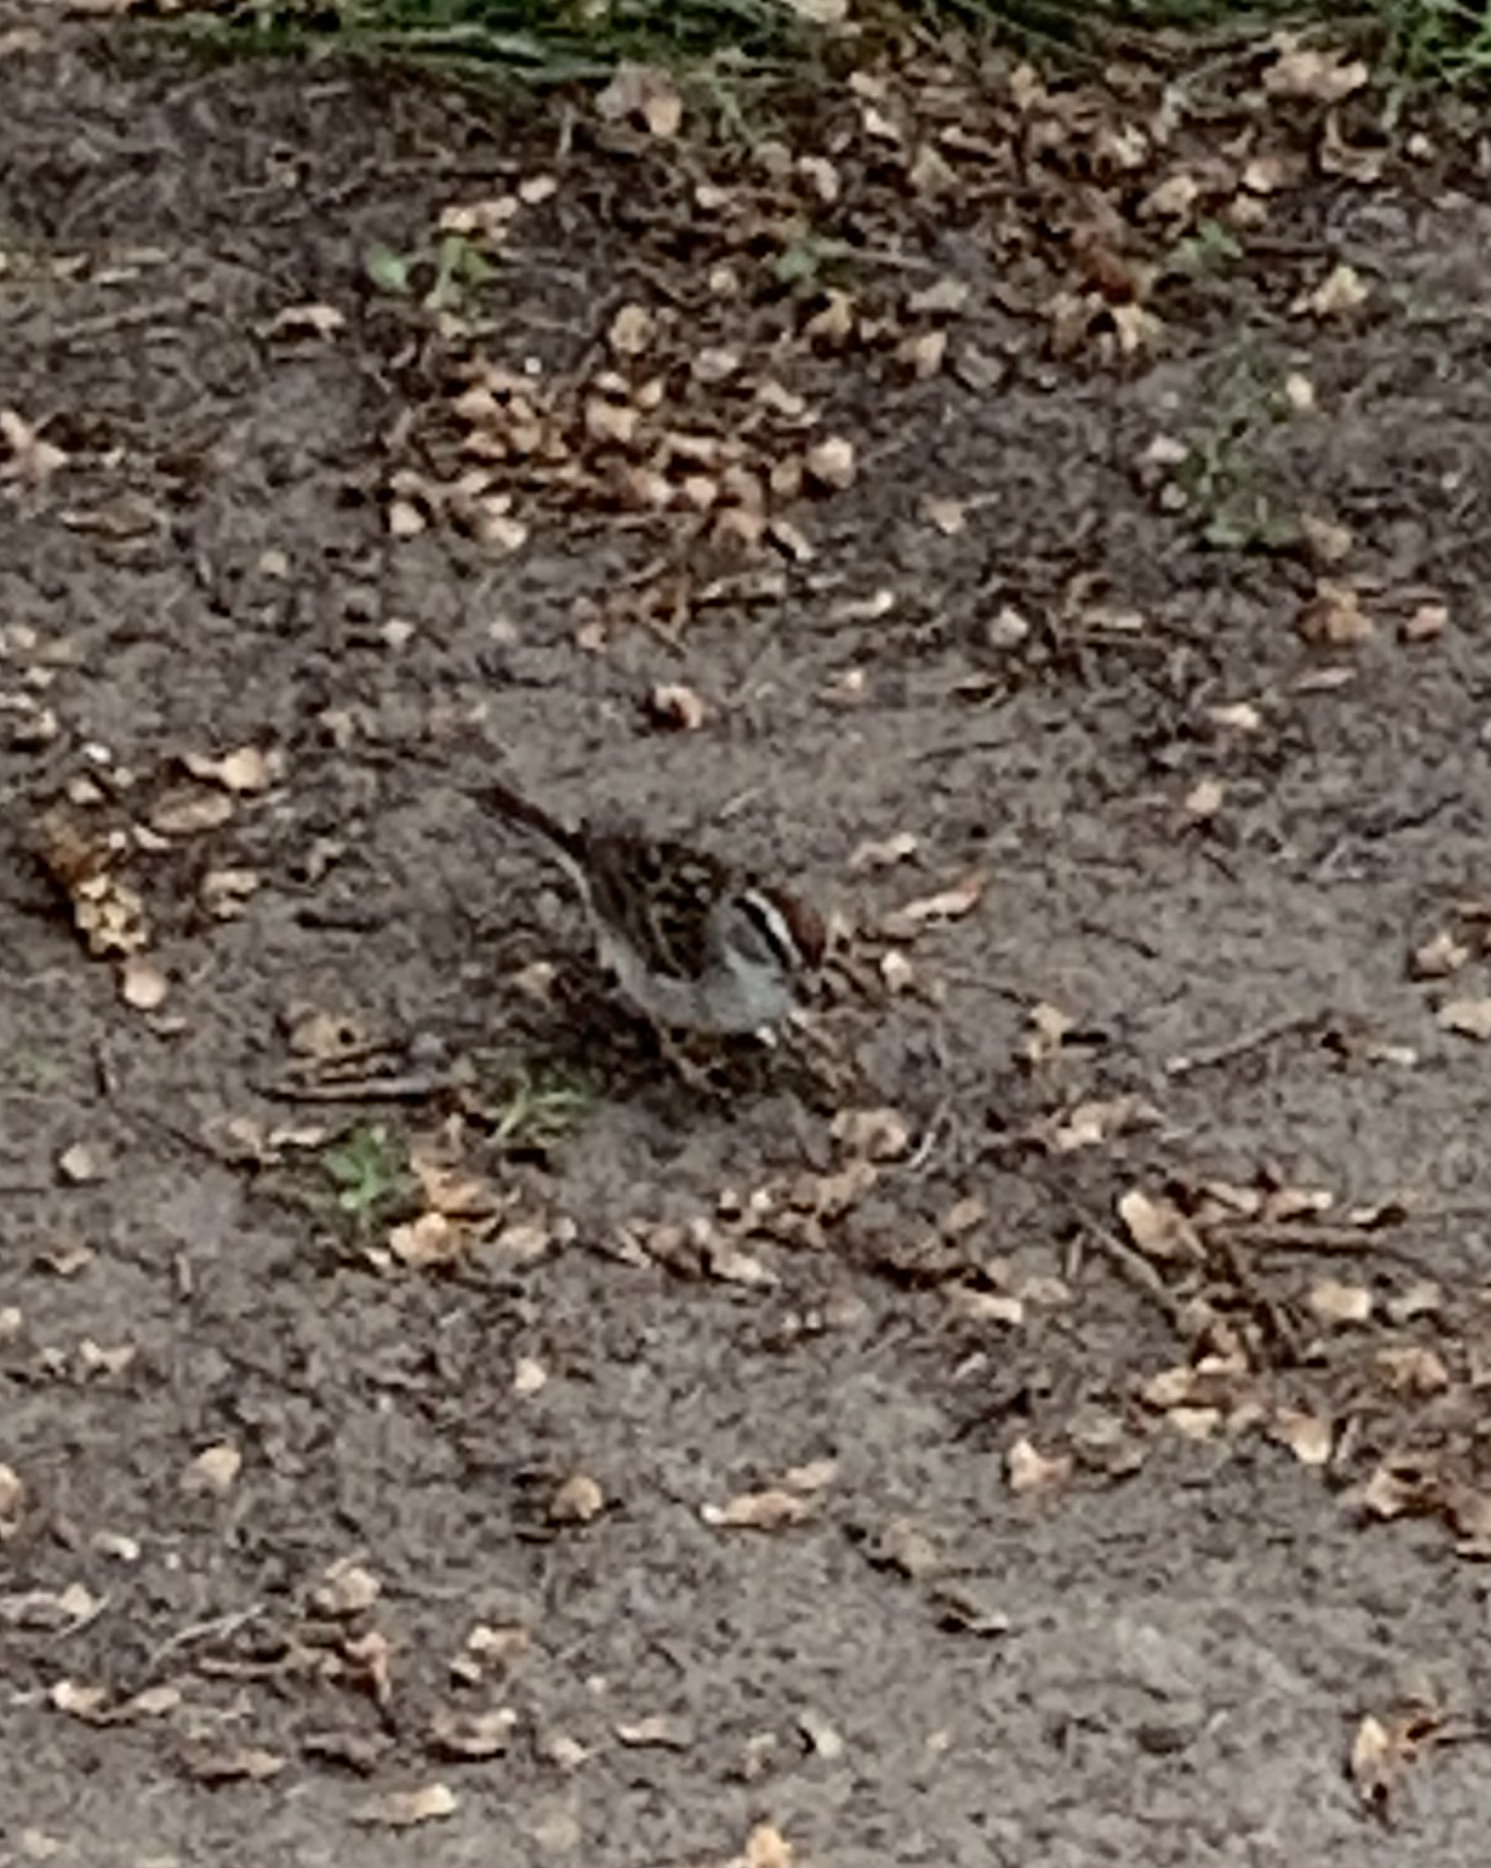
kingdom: Animalia
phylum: Chordata
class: Aves
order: Passeriformes
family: Passerellidae
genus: Spizella
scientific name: Spizella passerina
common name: Chipping sparrow
